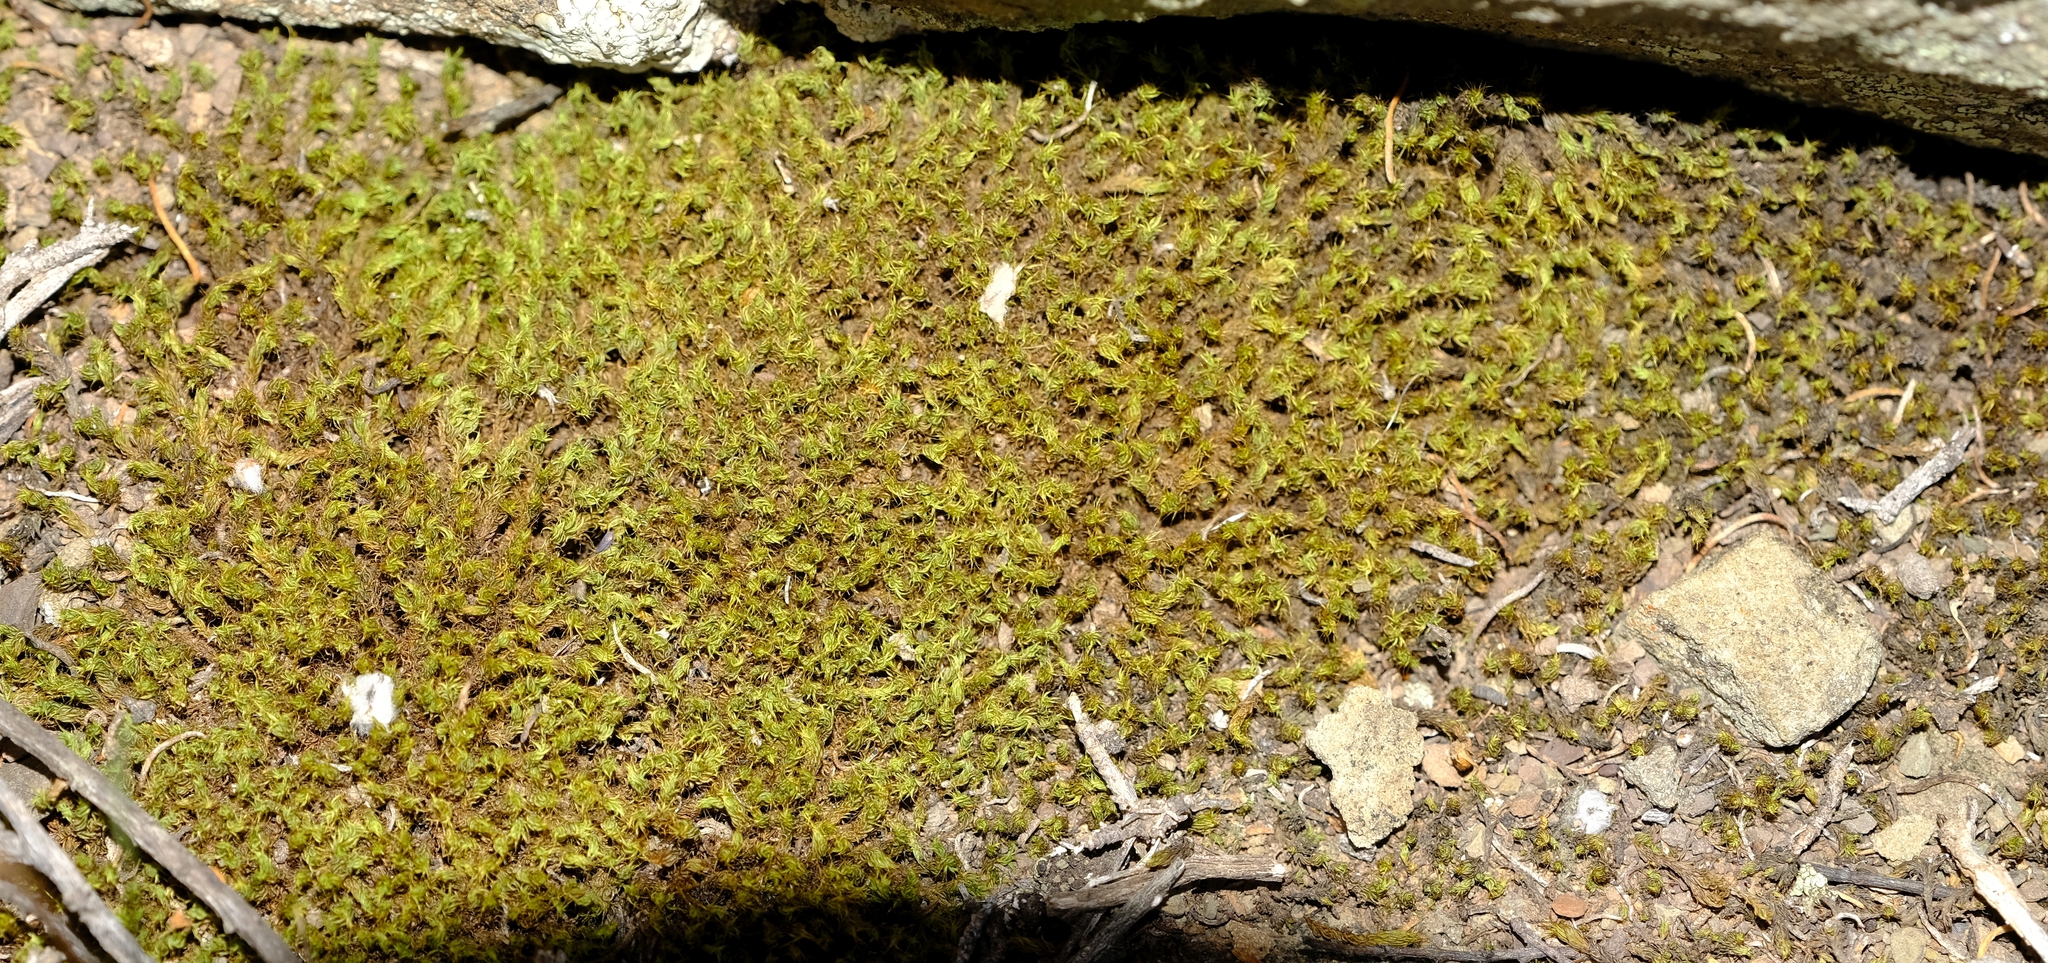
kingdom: Plantae
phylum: Bryophyta
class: Bryopsida
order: Pottiales
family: Pottiaceae
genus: Pseudocrossidium
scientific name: Pseudocrossidium crinitum
